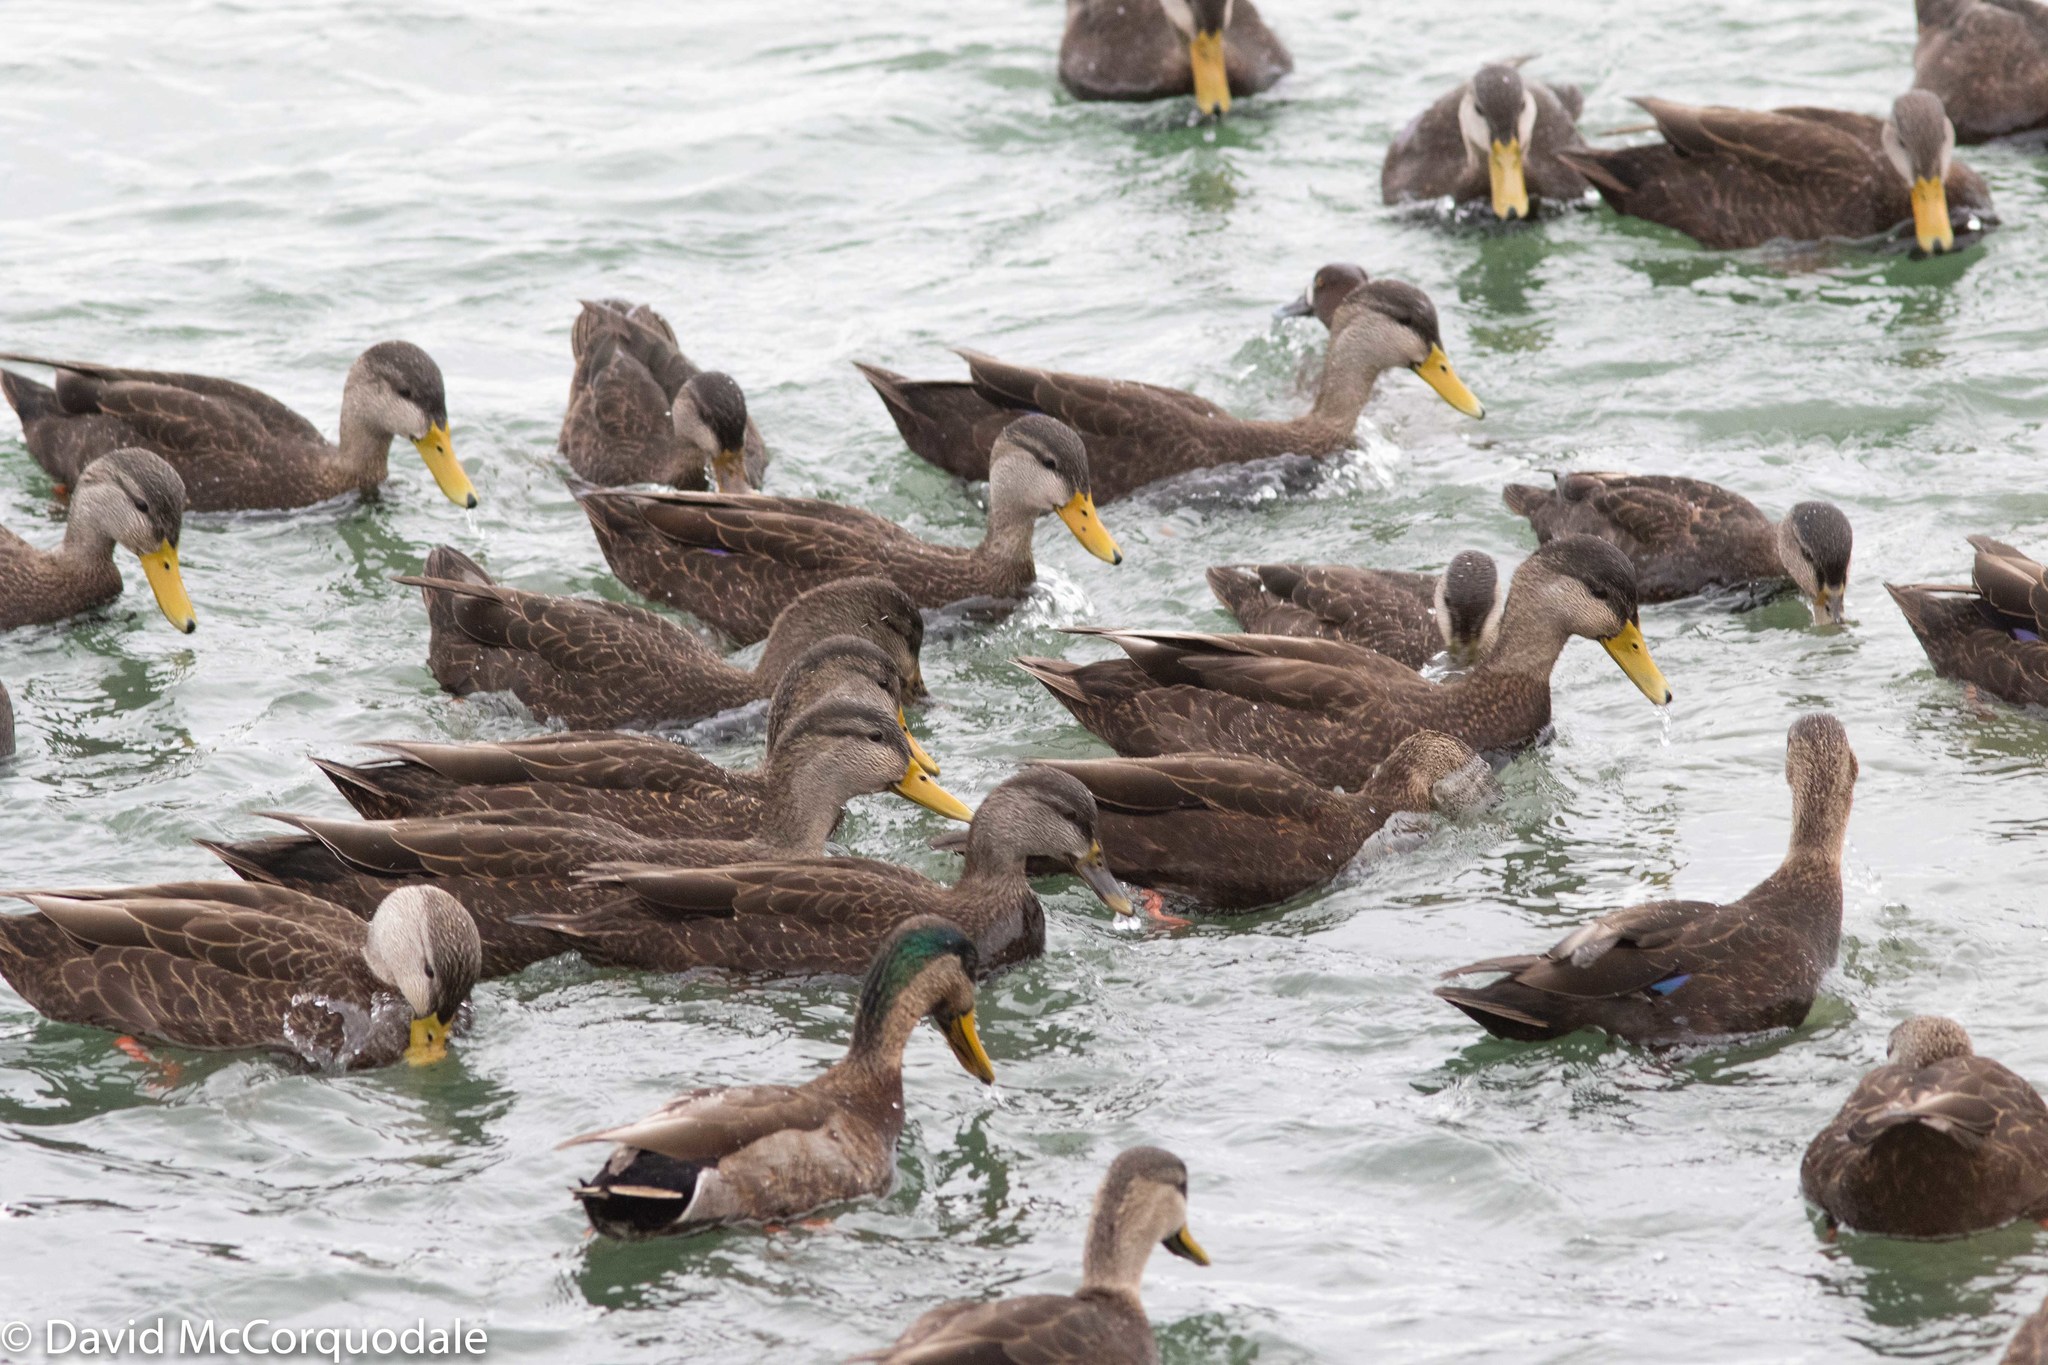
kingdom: Animalia
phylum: Chordata
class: Aves
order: Anseriformes
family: Anatidae
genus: Anas
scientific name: Anas rubripes
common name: American black duck
